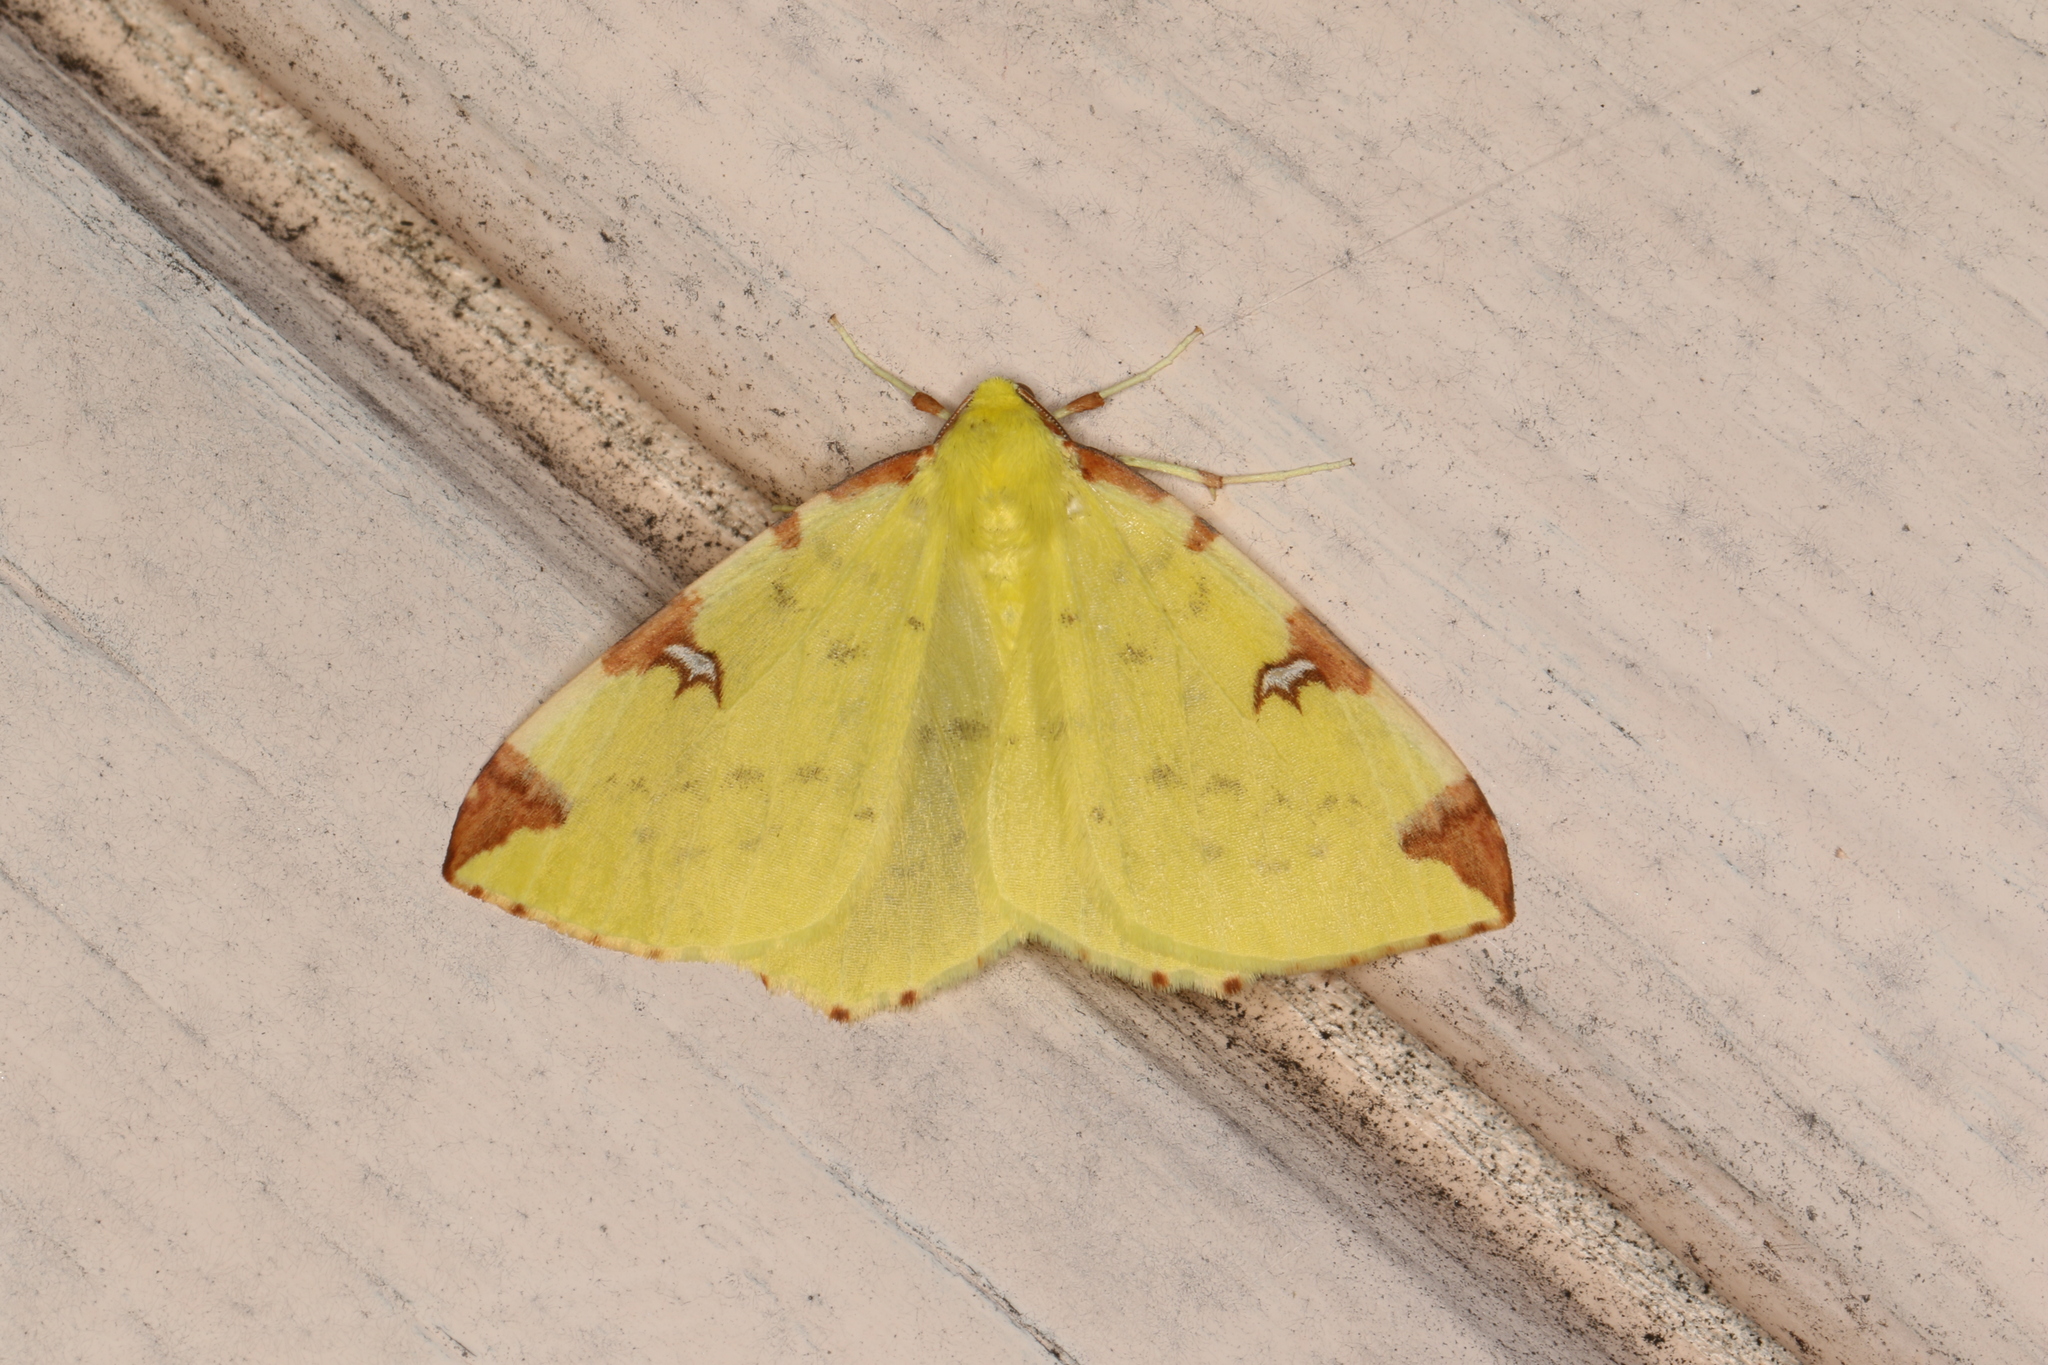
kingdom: Animalia
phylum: Arthropoda
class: Insecta
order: Lepidoptera
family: Geometridae
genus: Opisthograptis
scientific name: Opisthograptis luteolata
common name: Brimstone moth
